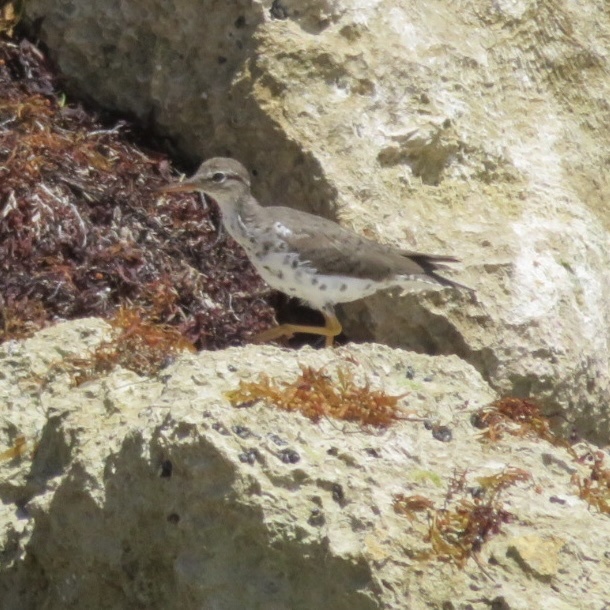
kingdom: Animalia
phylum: Chordata
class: Aves
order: Charadriiformes
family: Scolopacidae
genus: Actitis
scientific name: Actitis macularius
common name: Spotted sandpiper
